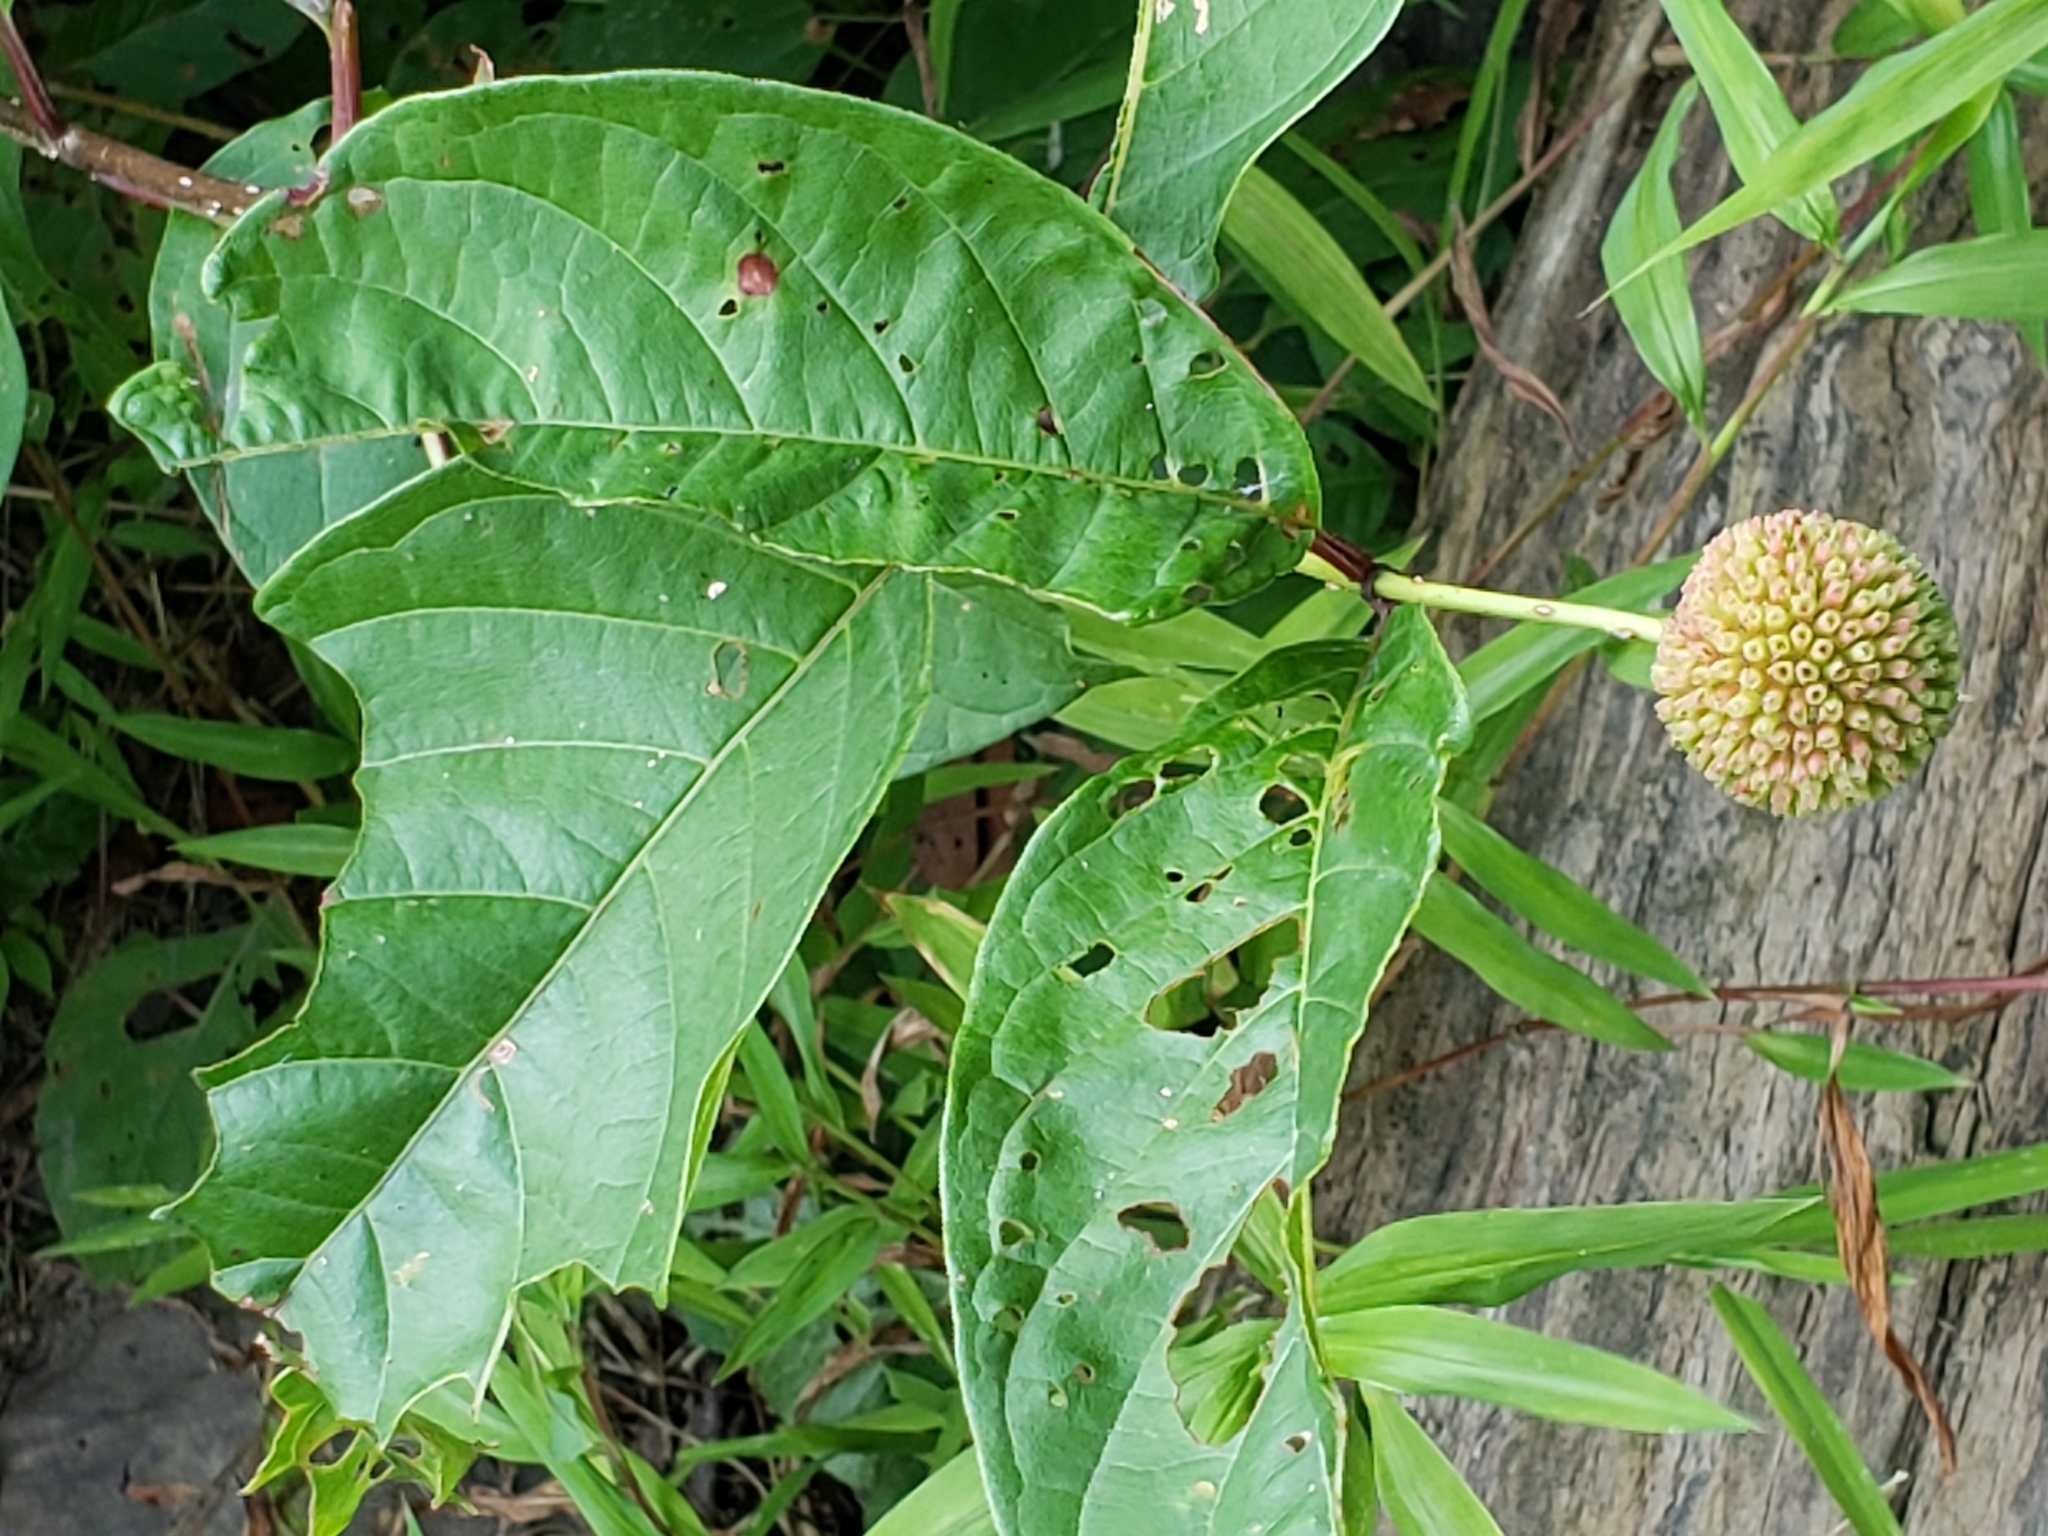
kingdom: Plantae
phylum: Tracheophyta
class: Magnoliopsida
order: Gentianales
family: Rubiaceae
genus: Cephalanthus
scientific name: Cephalanthus occidentalis
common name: Button-willow
